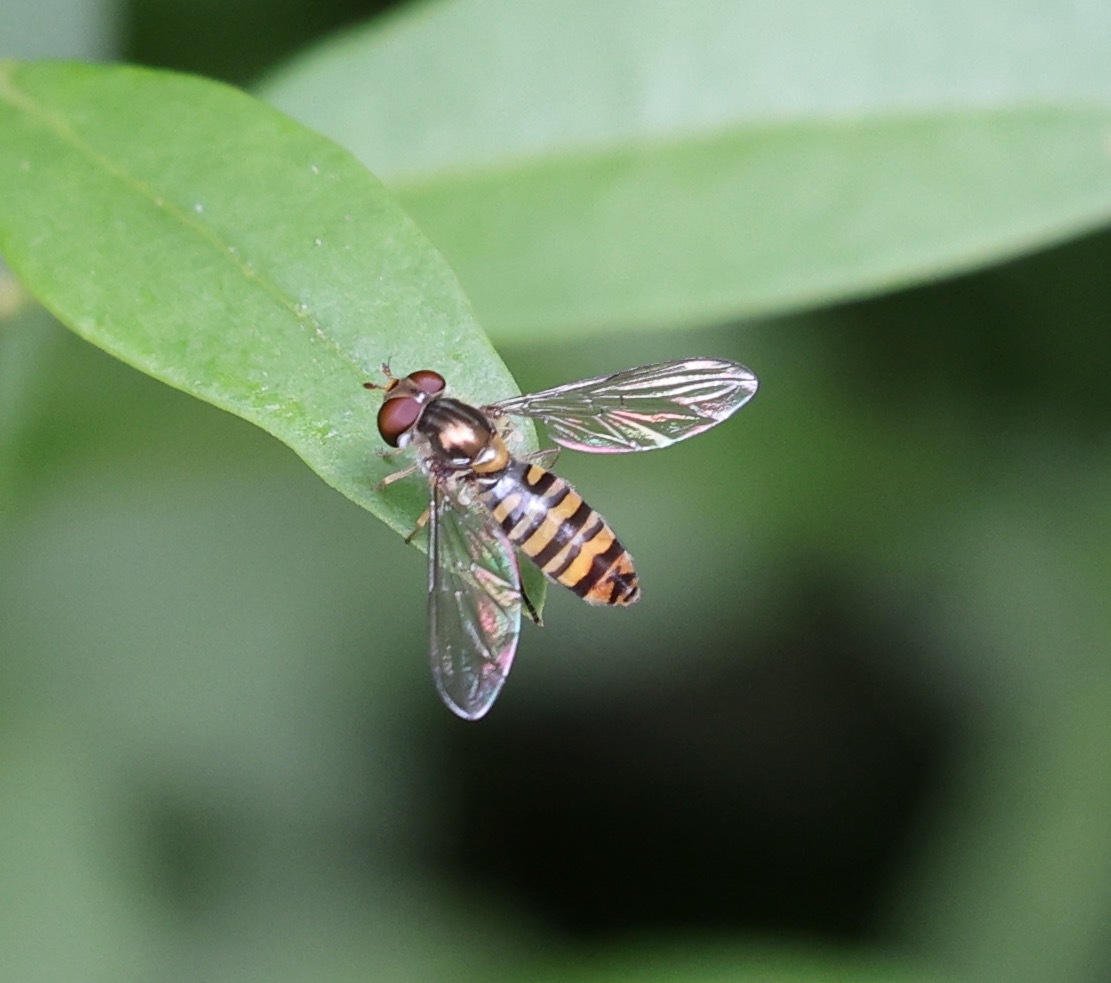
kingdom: Animalia
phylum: Arthropoda
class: Insecta
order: Diptera
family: Syrphidae
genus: Episyrphus
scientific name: Episyrphus balteatus
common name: Marmalade hoverfly
